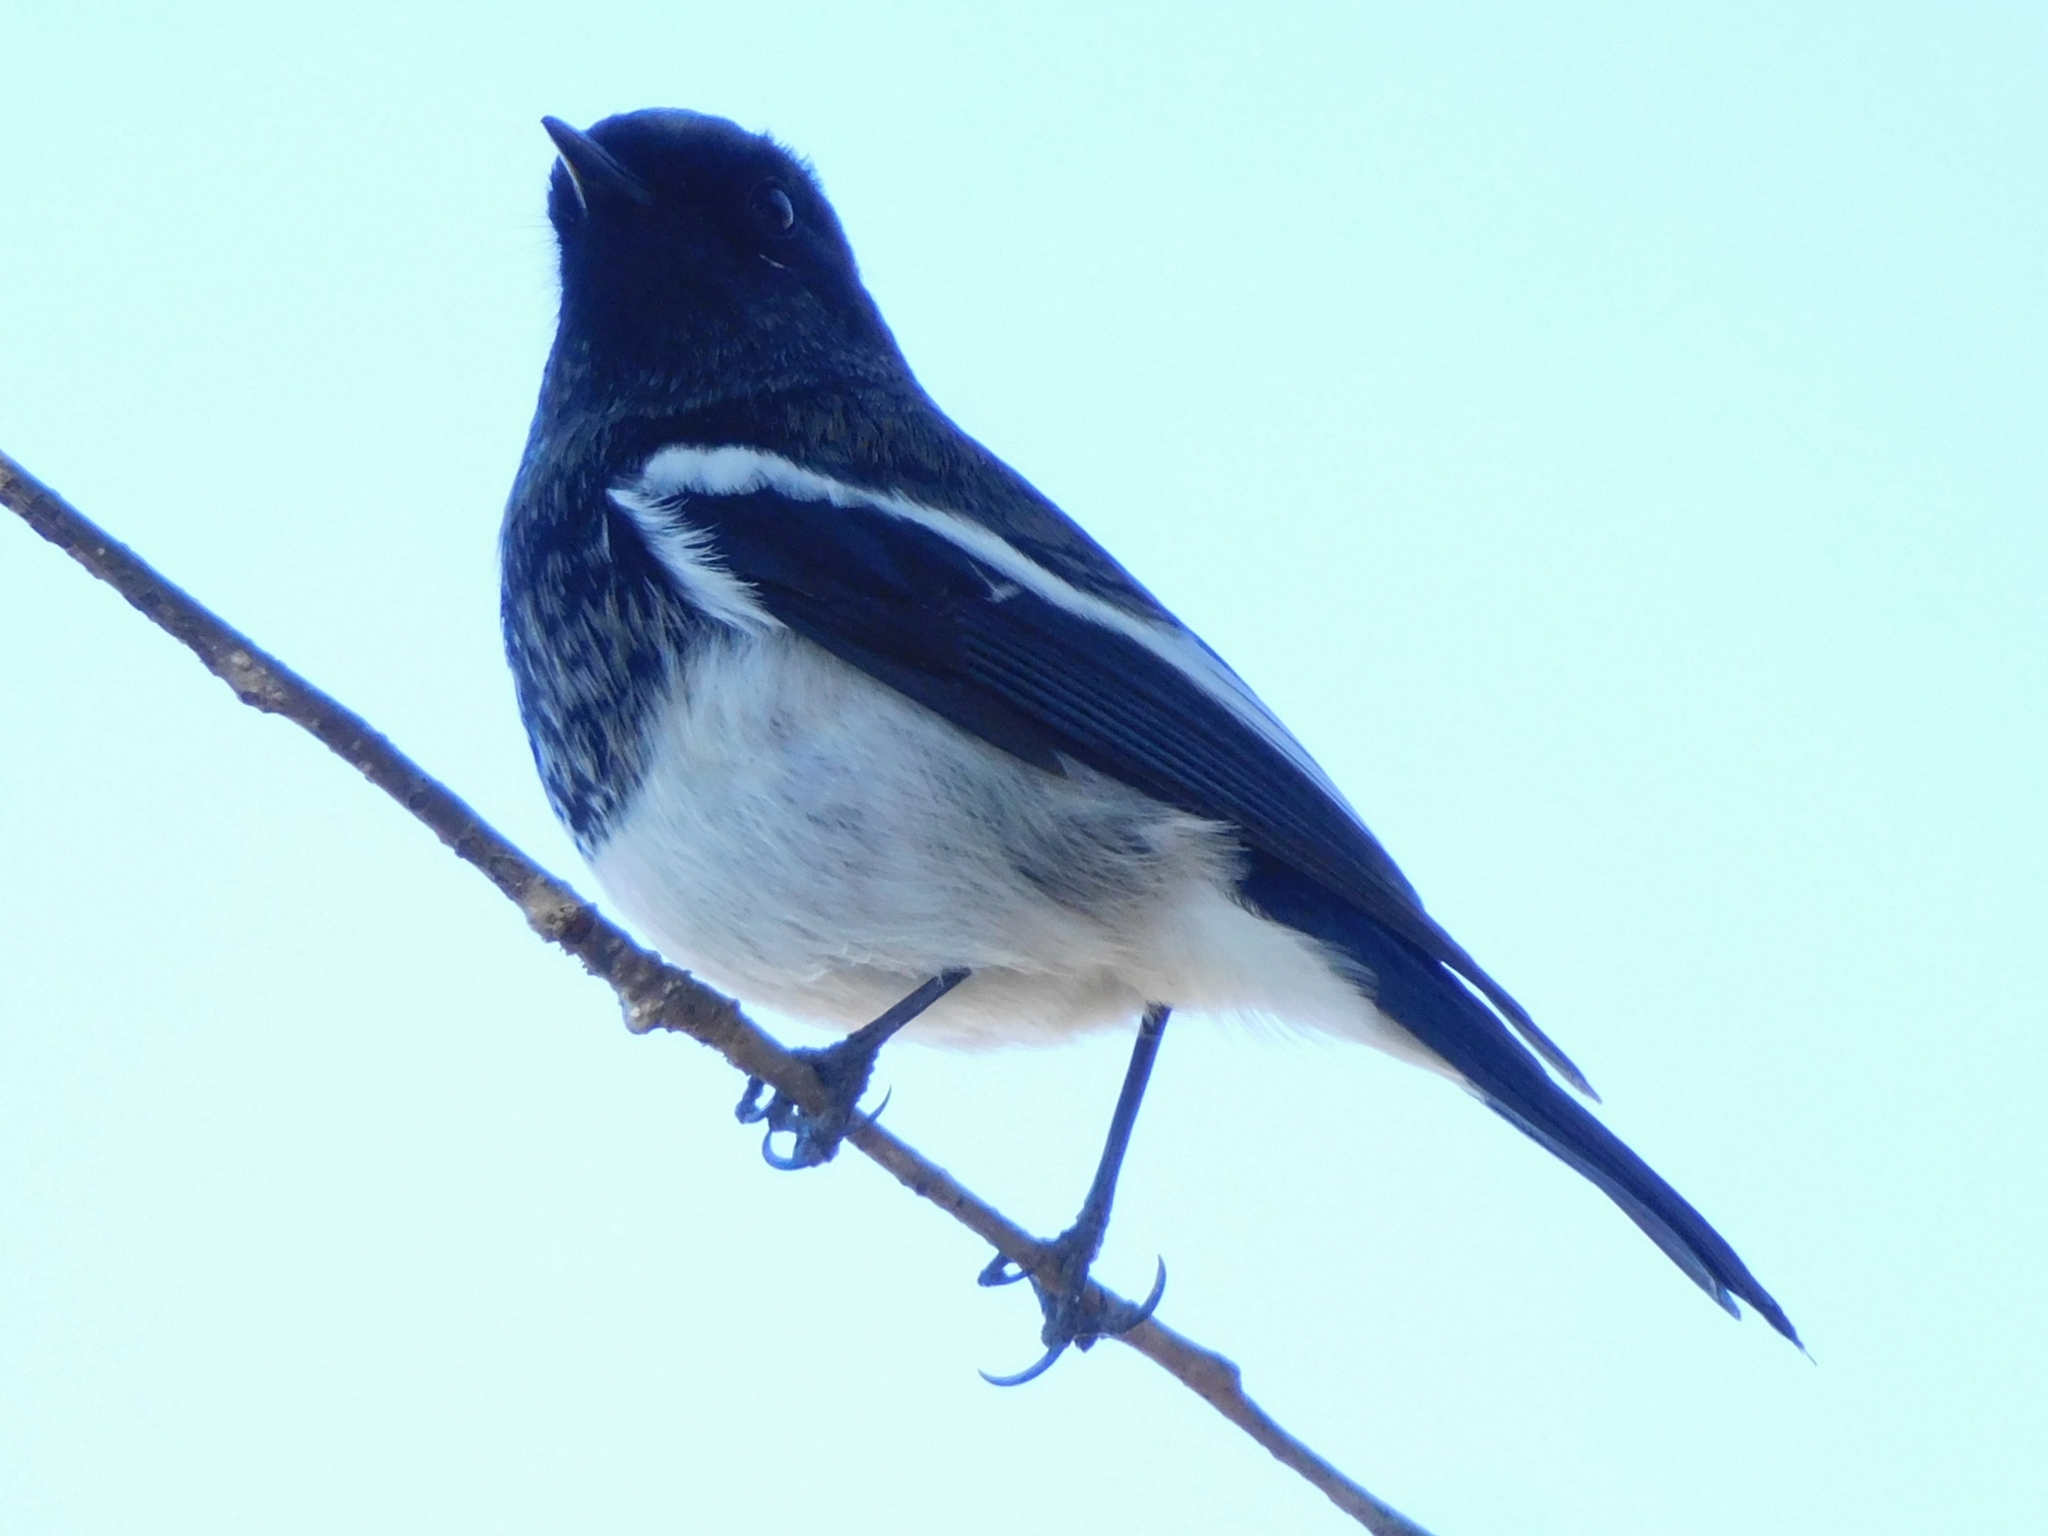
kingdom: Animalia
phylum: Chordata
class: Aves
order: Passeriformes
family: Muscicapidae
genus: Phoenicurus
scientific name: Phoenicurus coeruleocephala
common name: Blue-capped redstart
